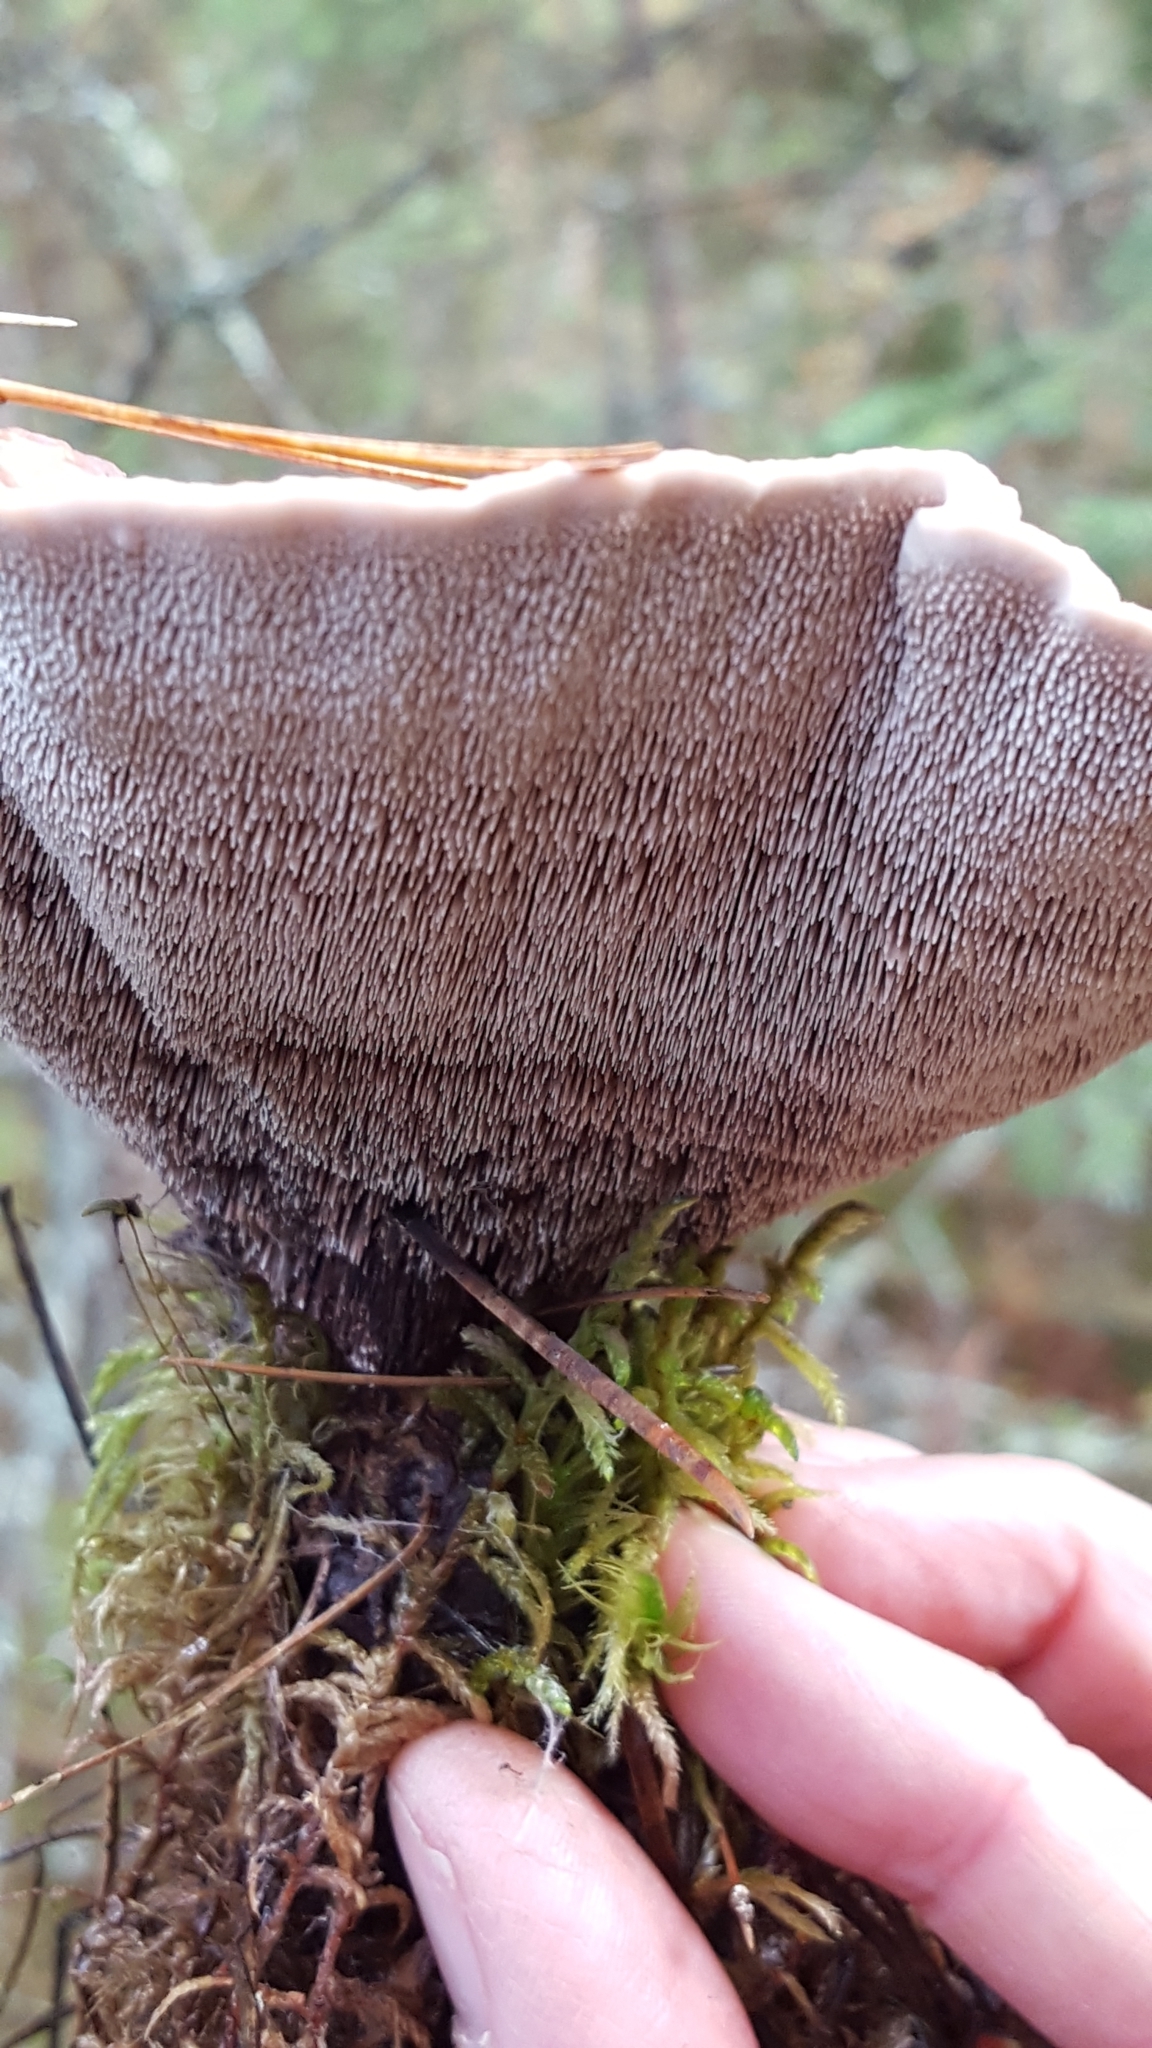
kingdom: Fungi
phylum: Basidiomycota
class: Agaricomycetes
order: Thelephorales
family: Bankeraceae
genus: Hydnellum
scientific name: Hydnellum scrobiculatum
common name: Ridged tooth
